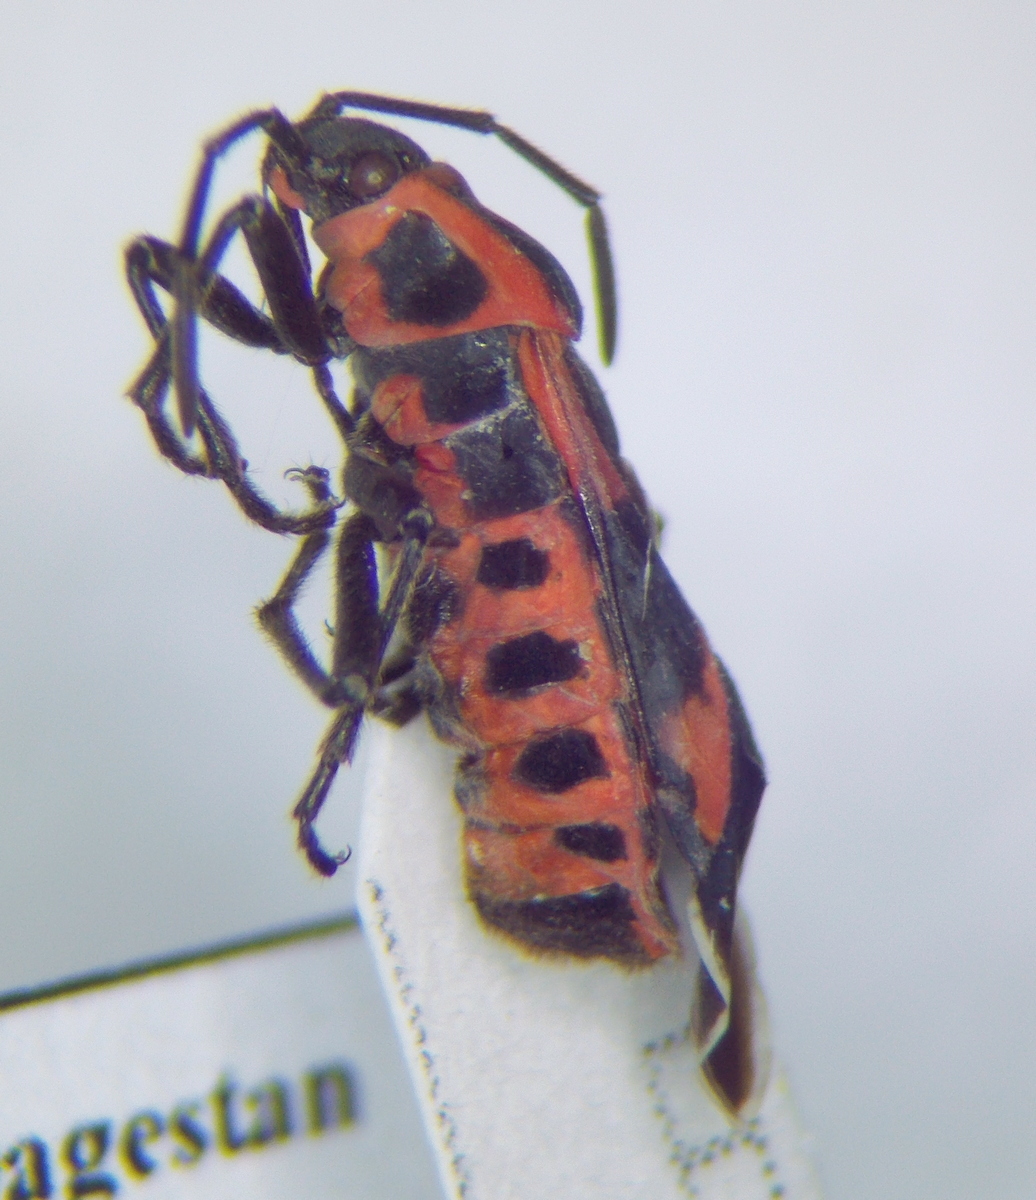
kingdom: Animalia
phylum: Arthropoda
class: Insecta
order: Hemiptera
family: Lygaeidae
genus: Tropidothorax
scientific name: Tropidothorax leucopterus
